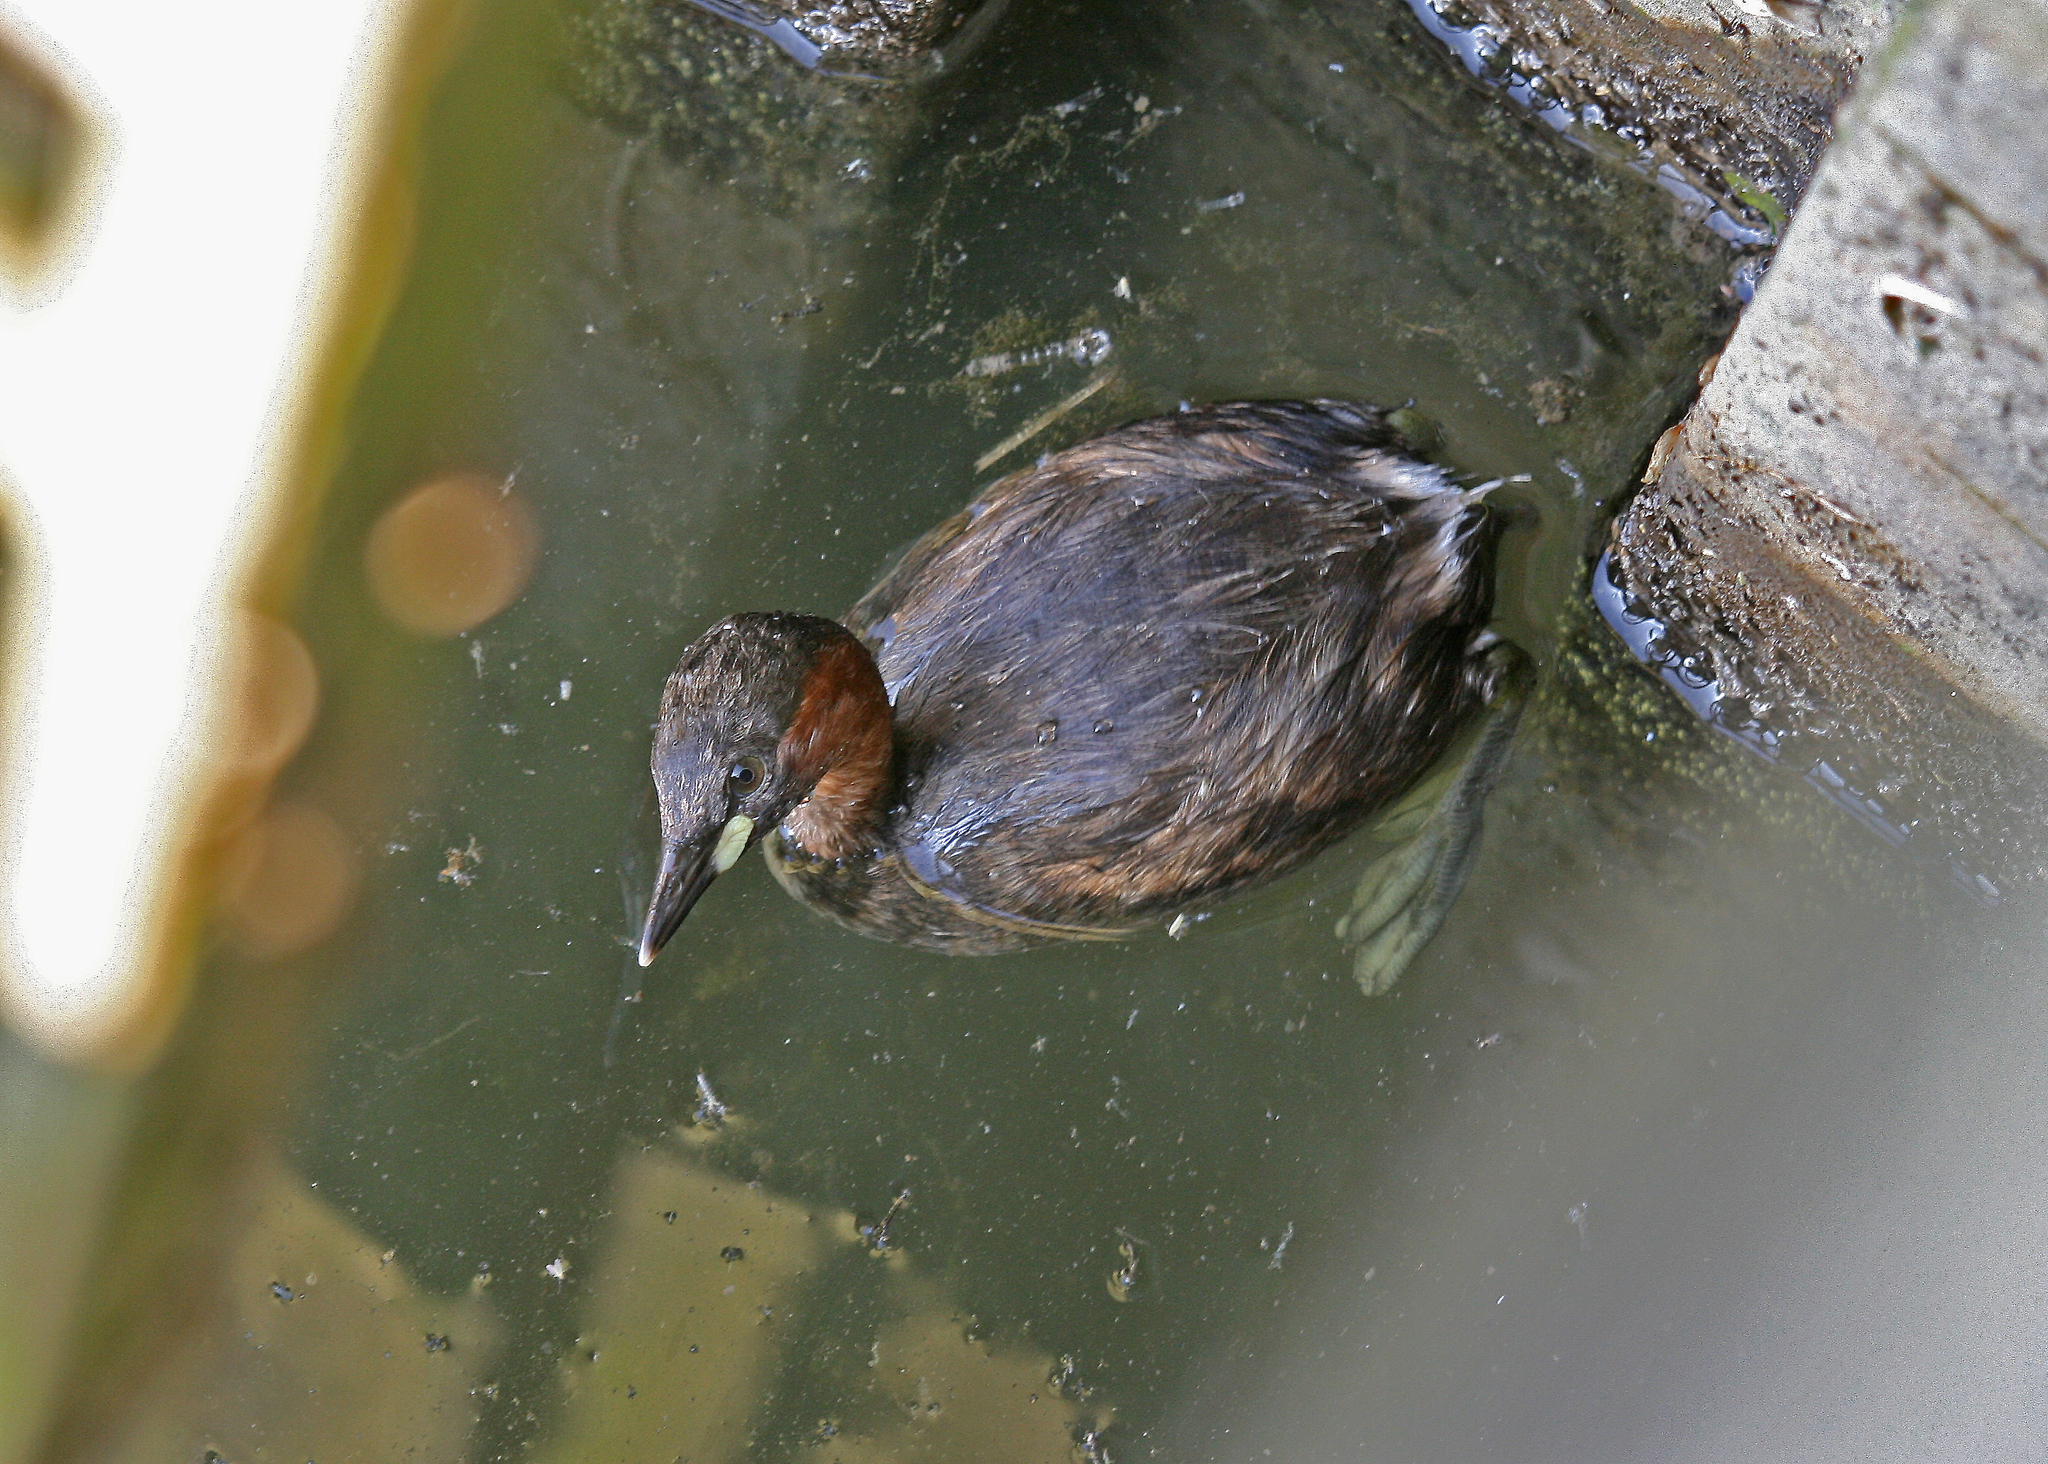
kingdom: Animalia
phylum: Chordata
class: Aves
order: Podicipediformes
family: Podicipedidae
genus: Tachybaptus
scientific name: Tachybaptus ruficollis
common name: Little grebe
